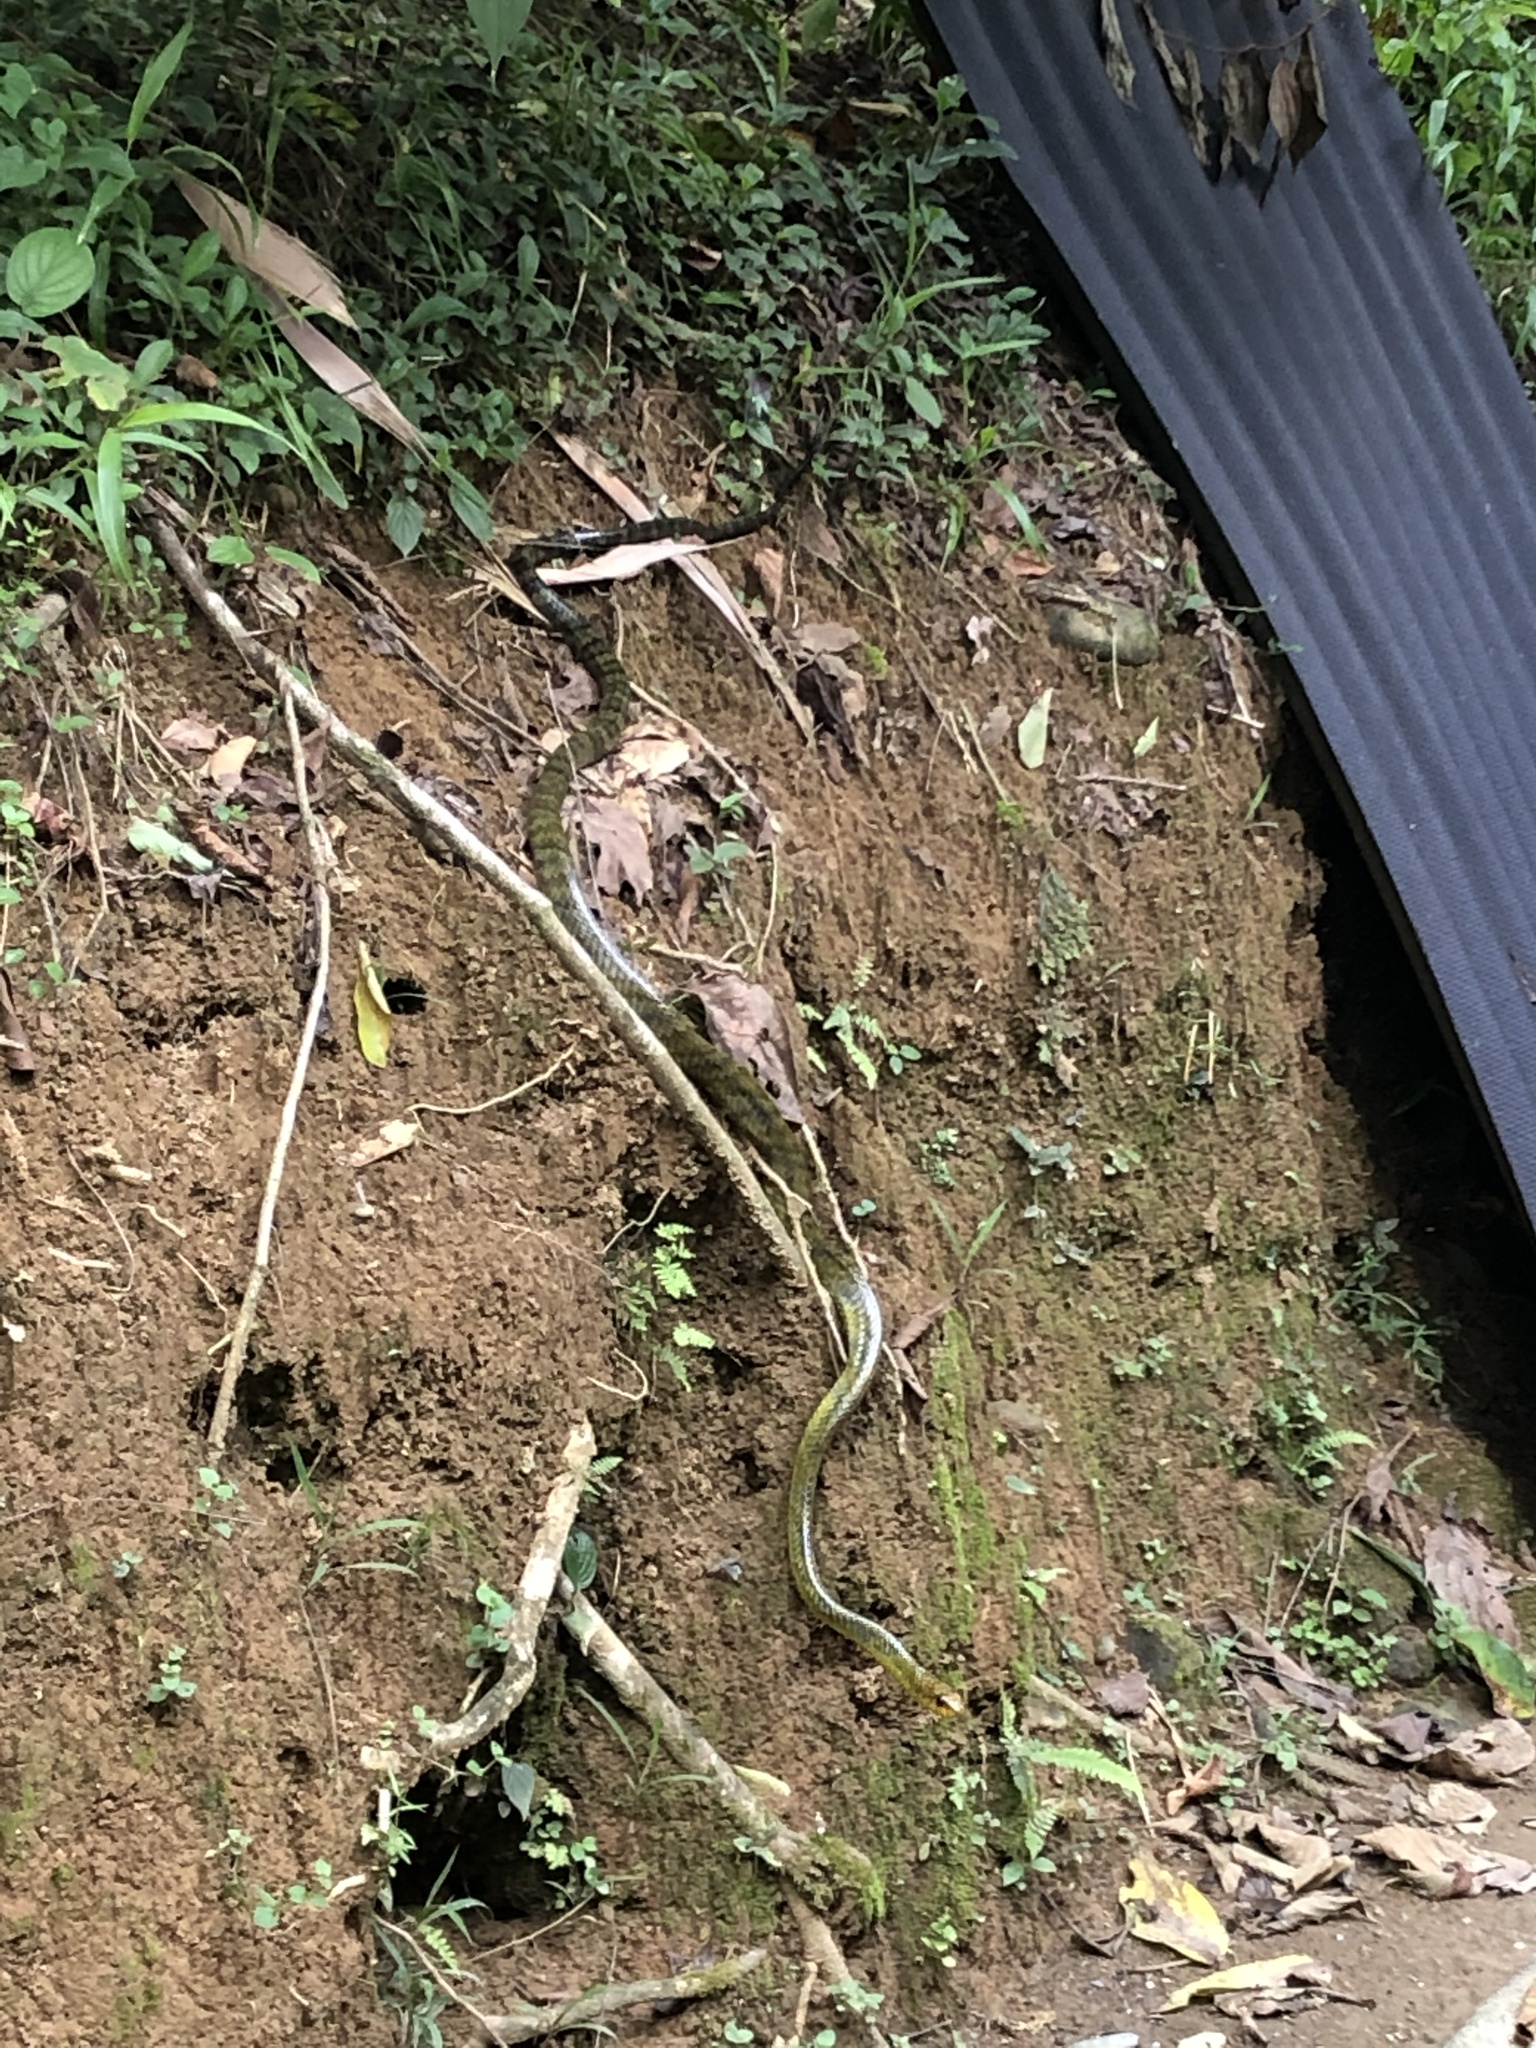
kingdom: Animalia
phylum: Chordata
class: Squamata
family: Colubridae
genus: Spilotes
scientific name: Spilotes sulphureus
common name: Amazon puffing snake
